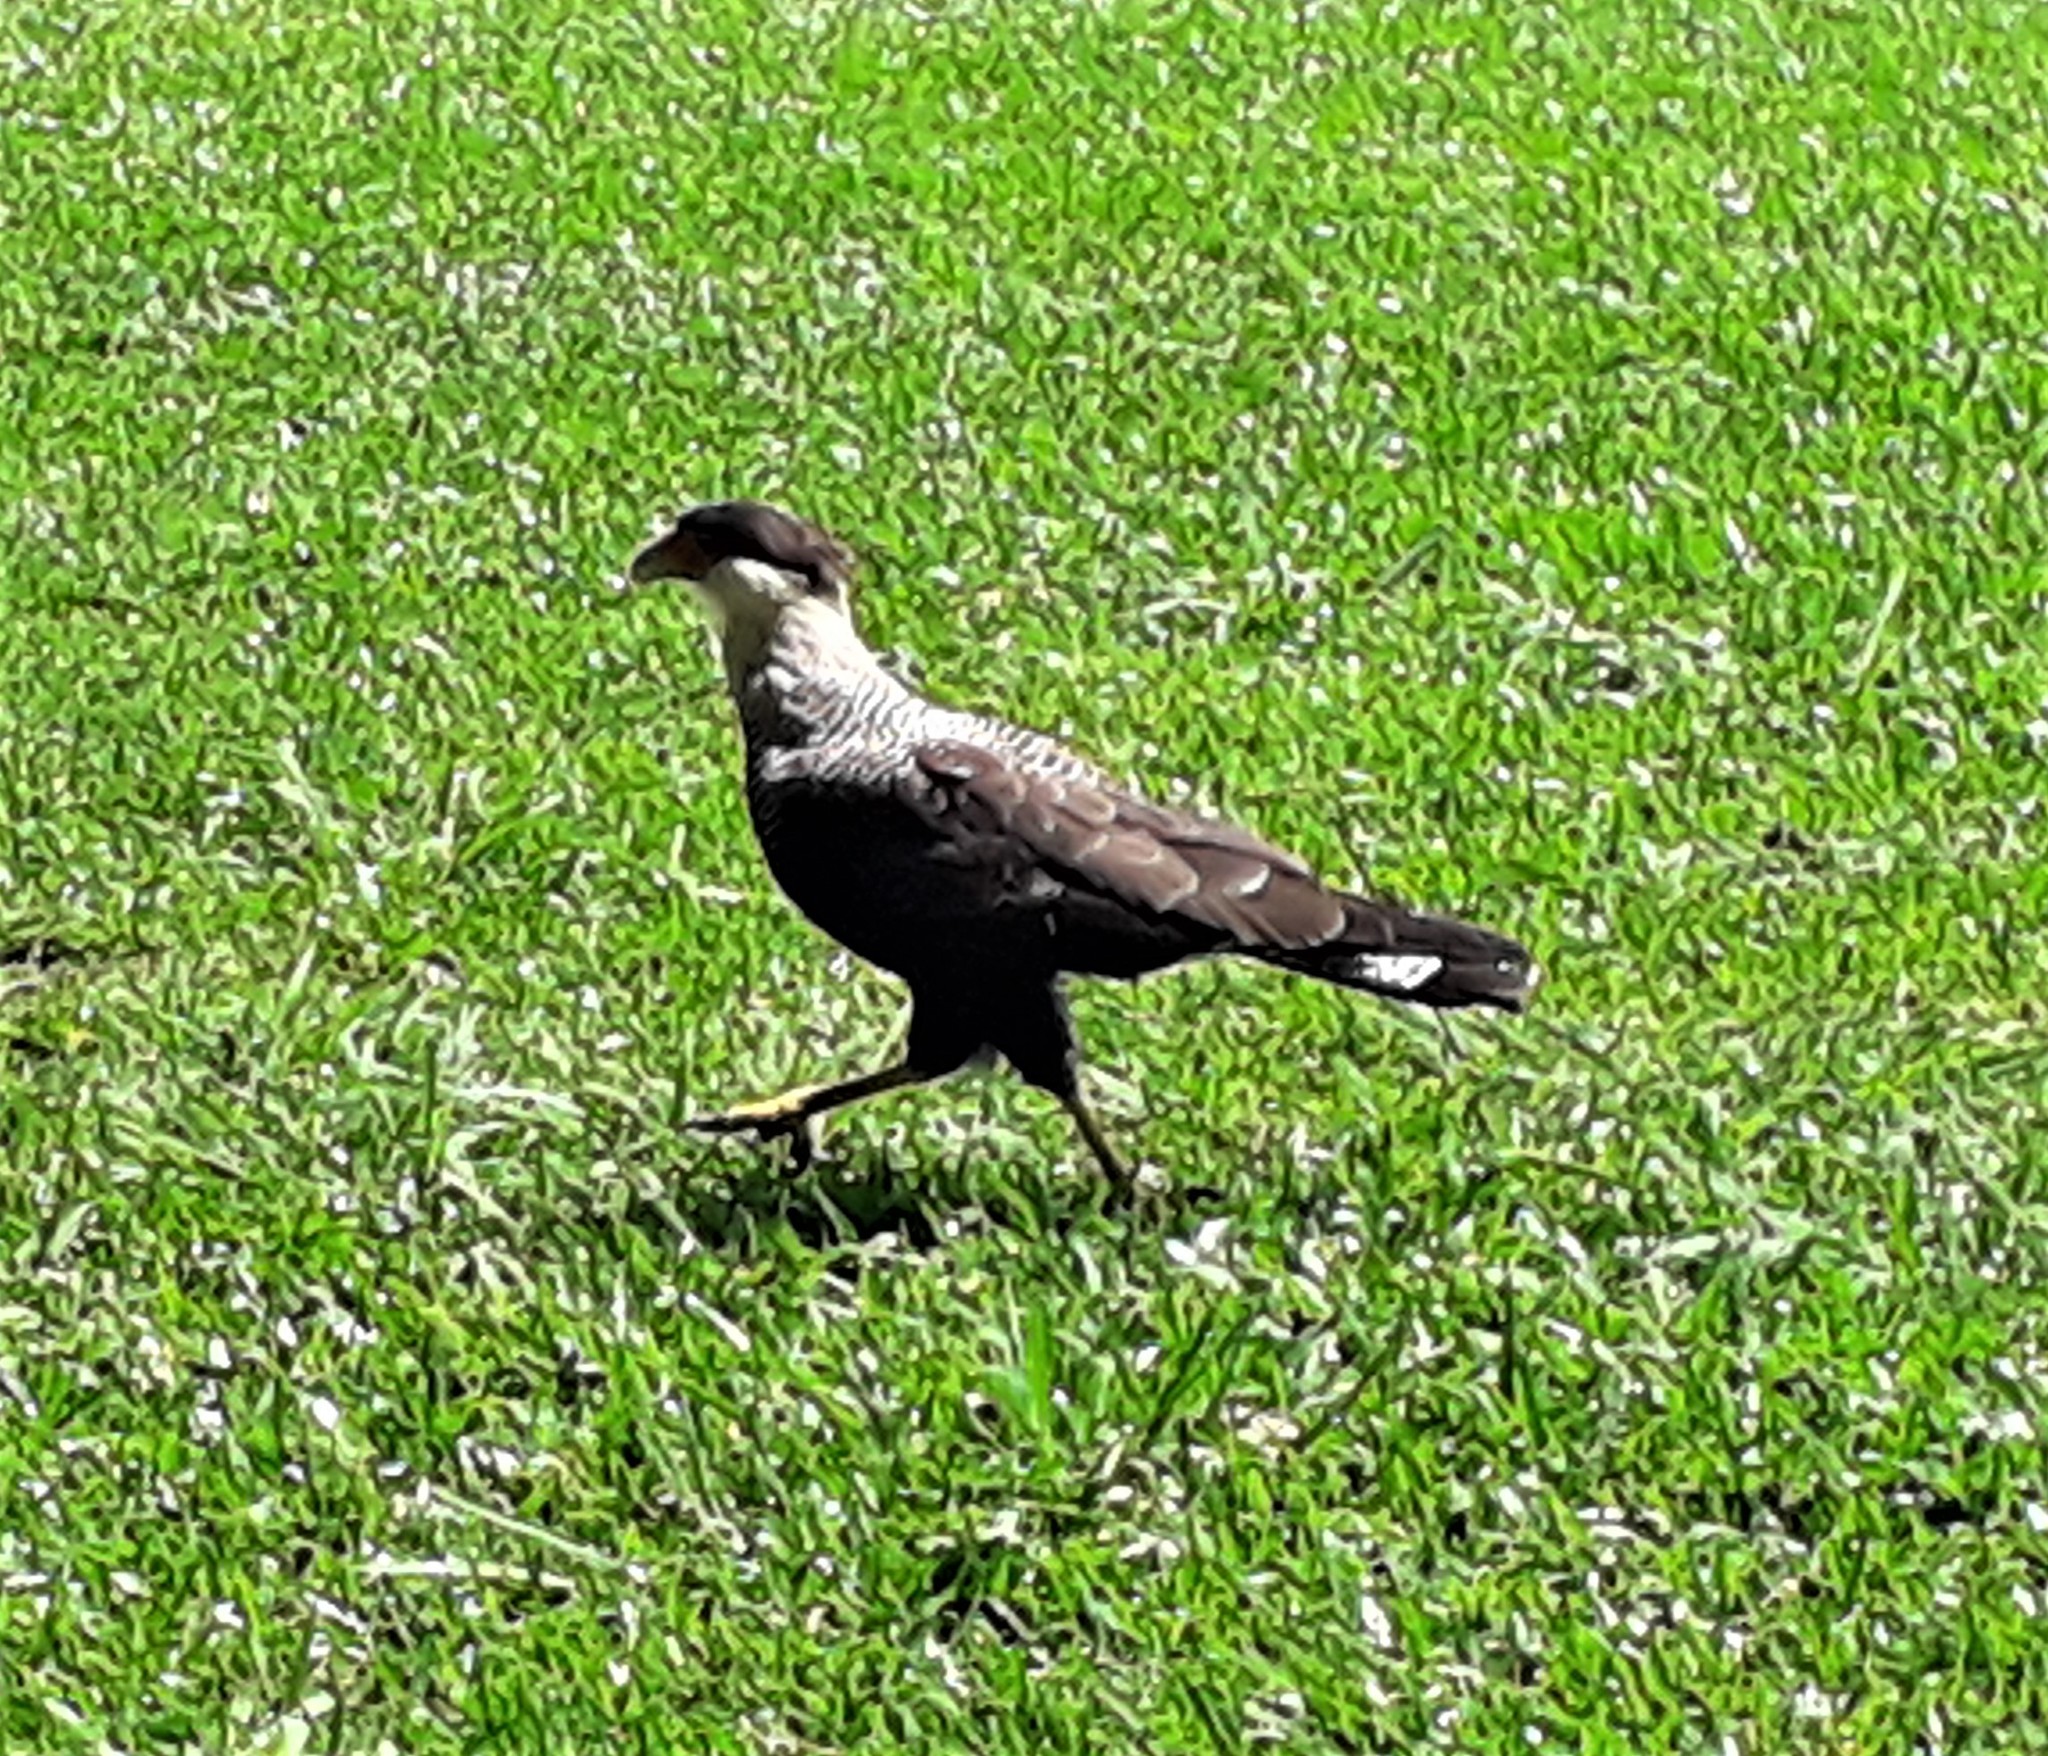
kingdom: Animalia
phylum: Chordata
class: Aves
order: Falconiformes
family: Falconidae
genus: Caracara
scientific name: Caracara plancus
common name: Southern caracara
